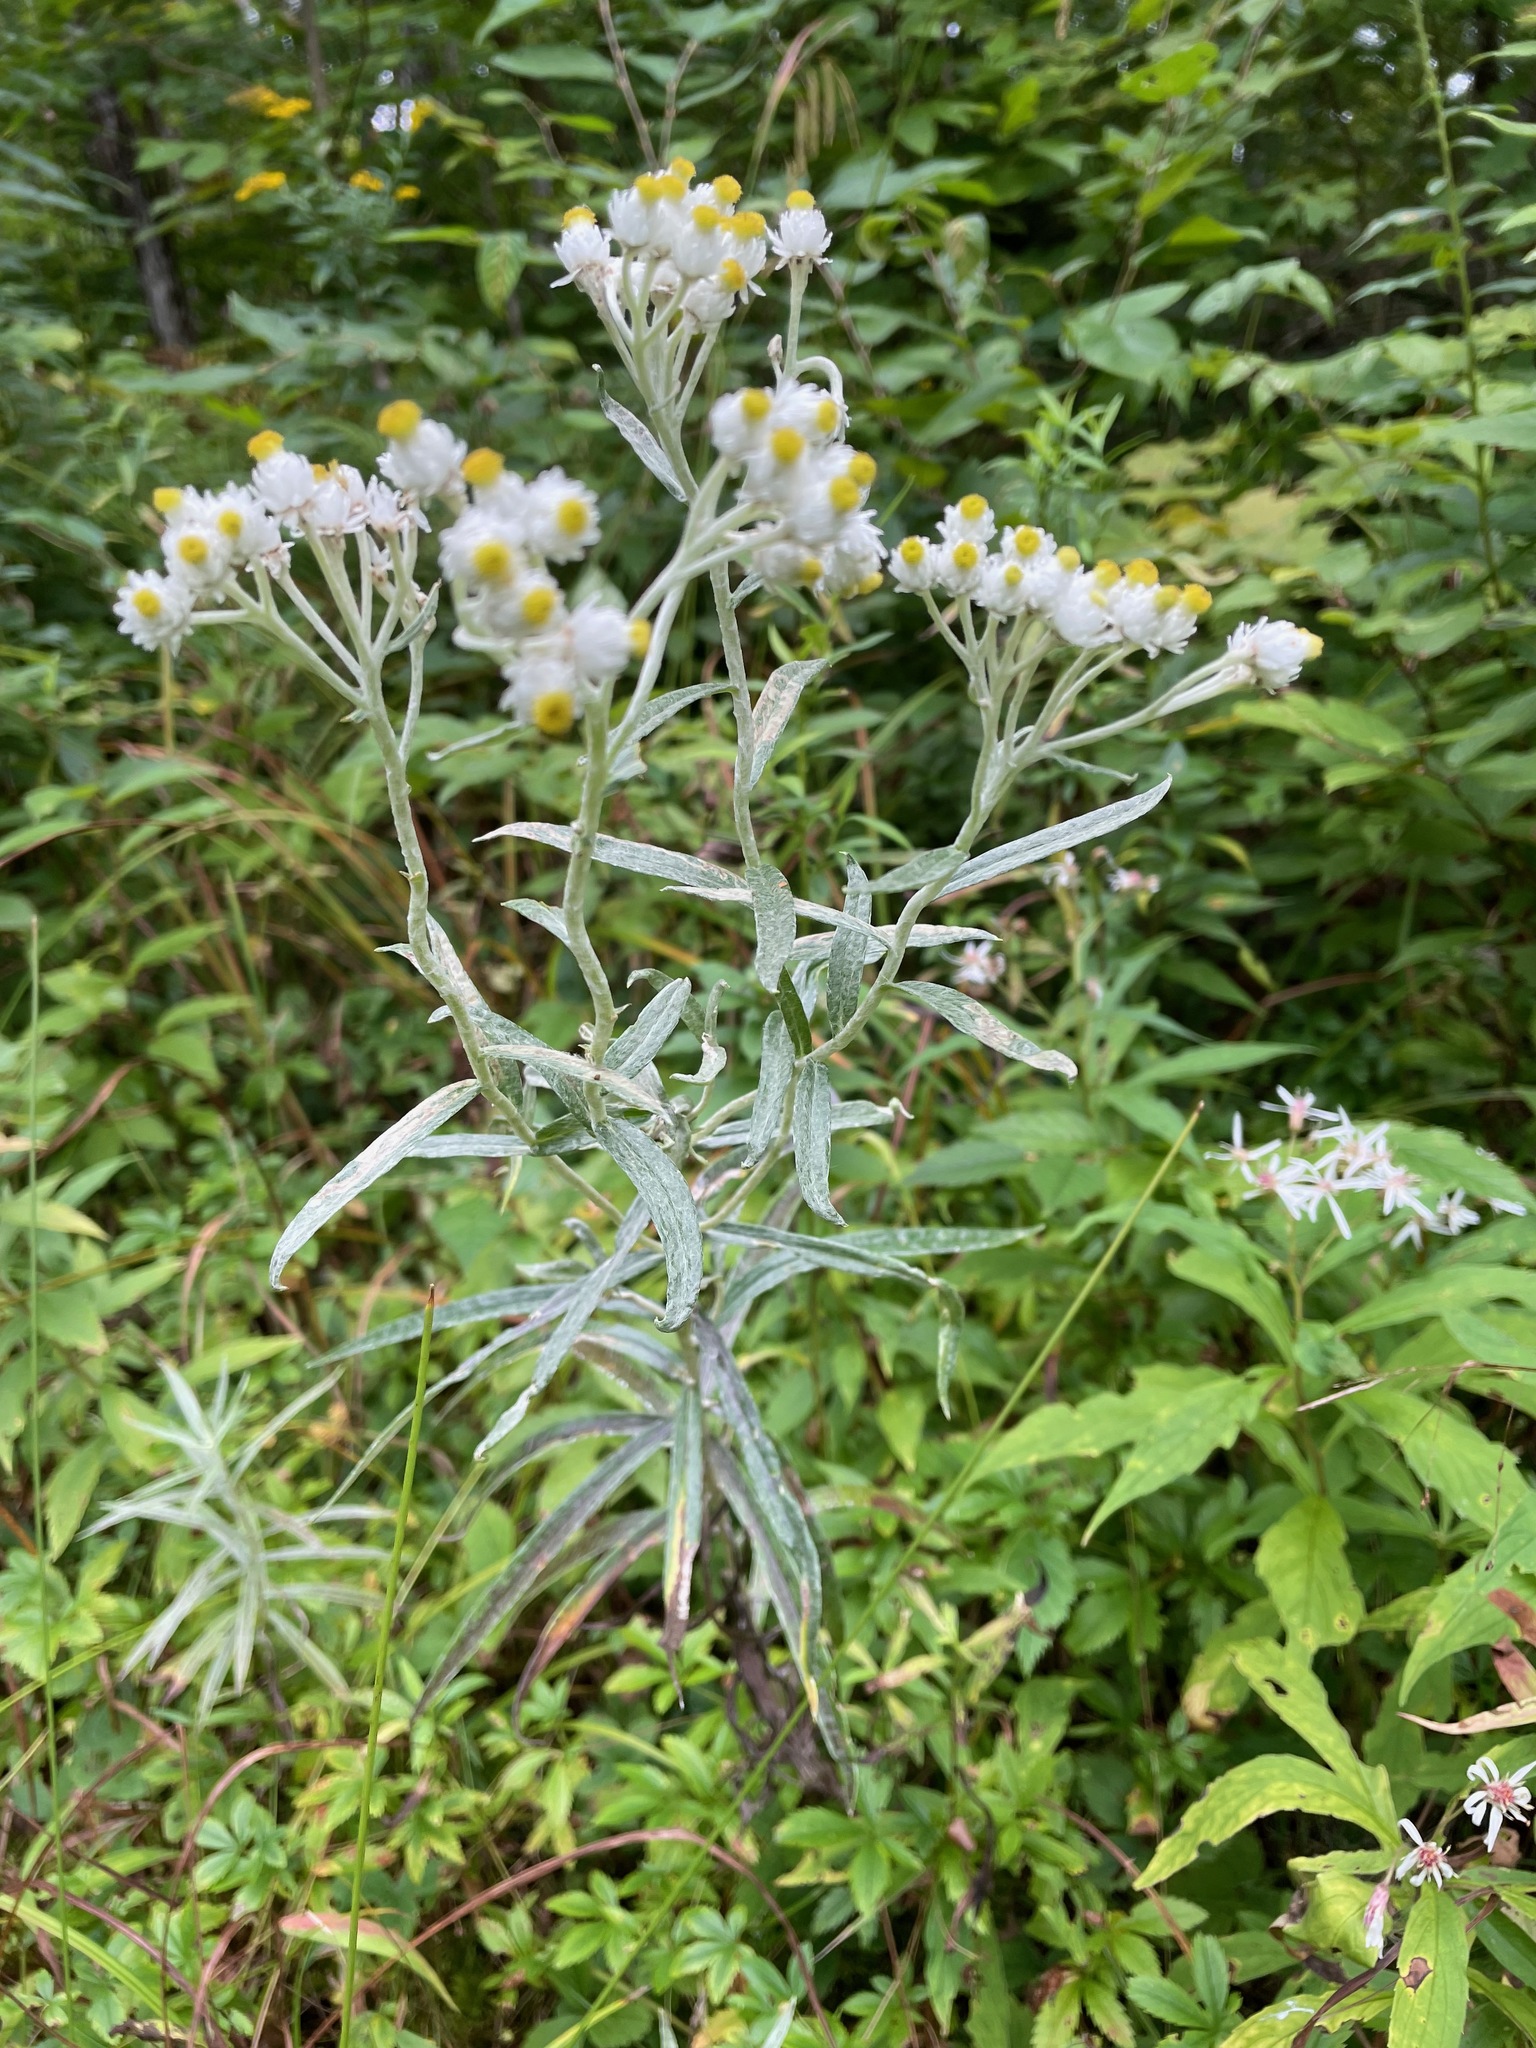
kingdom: Plantae
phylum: Tracheophyta
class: Magnoliopsida
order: Asterales
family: Asteraceae
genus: Anaphalis
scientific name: Anaphalis margaritacea
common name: Pearly everlasting
